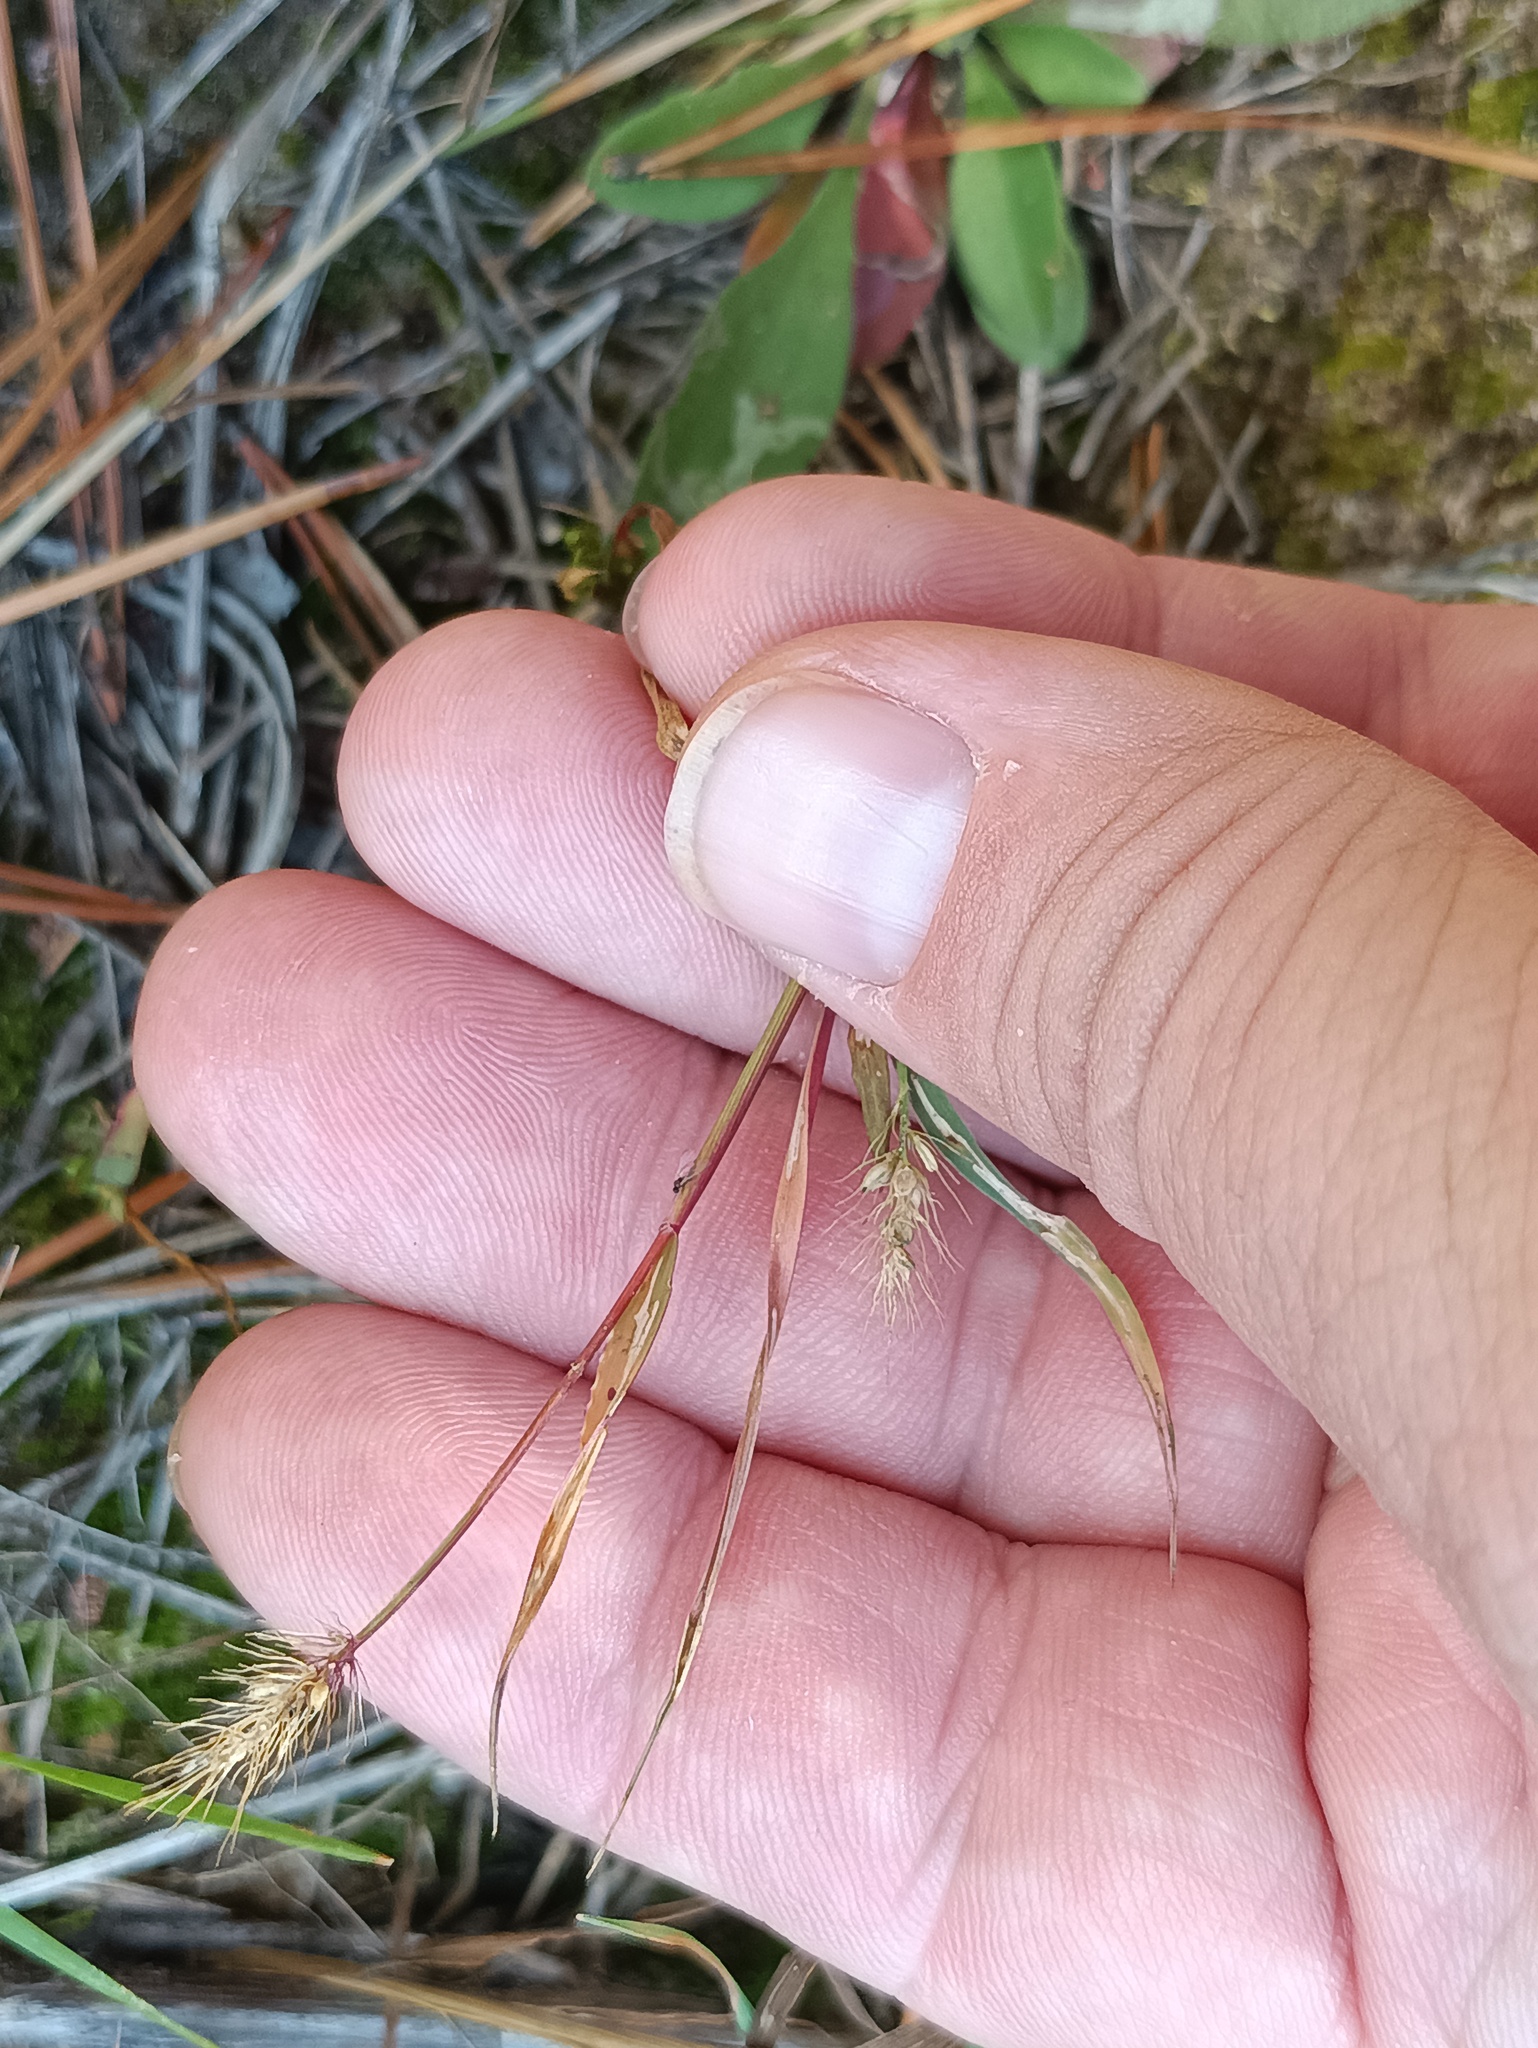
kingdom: Plantae
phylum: Tracheophyta
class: Liliopsida
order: Poales
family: Poaceae
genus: Setaria
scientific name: Setaria viridis
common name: Green bristlegrass
